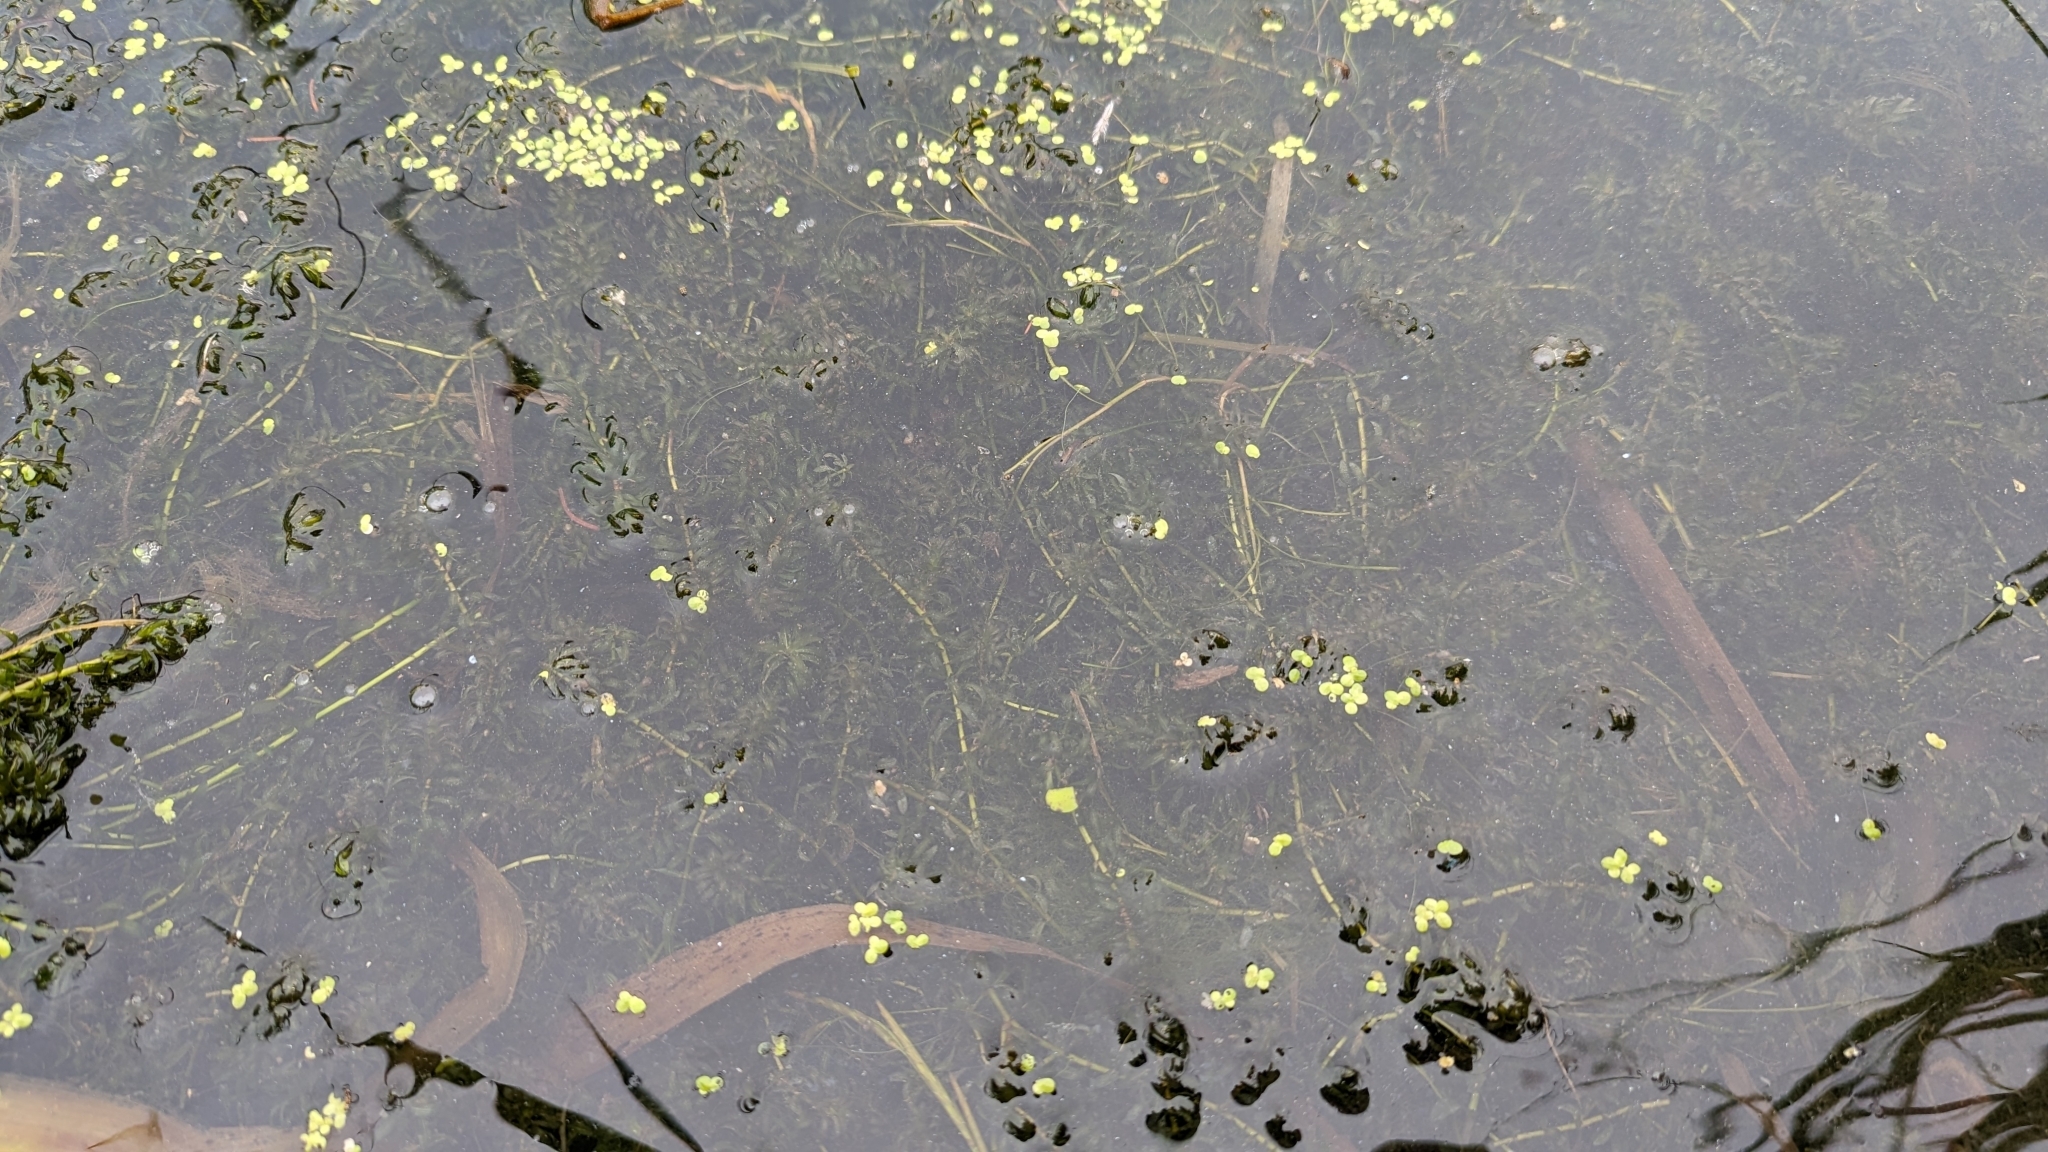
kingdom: Plantae
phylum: Tracheophyta
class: Liliopsida
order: Alismatales
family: Hydrocharitaceae
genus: Elodea
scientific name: Elodea canadensis
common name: Canadian waterweed
